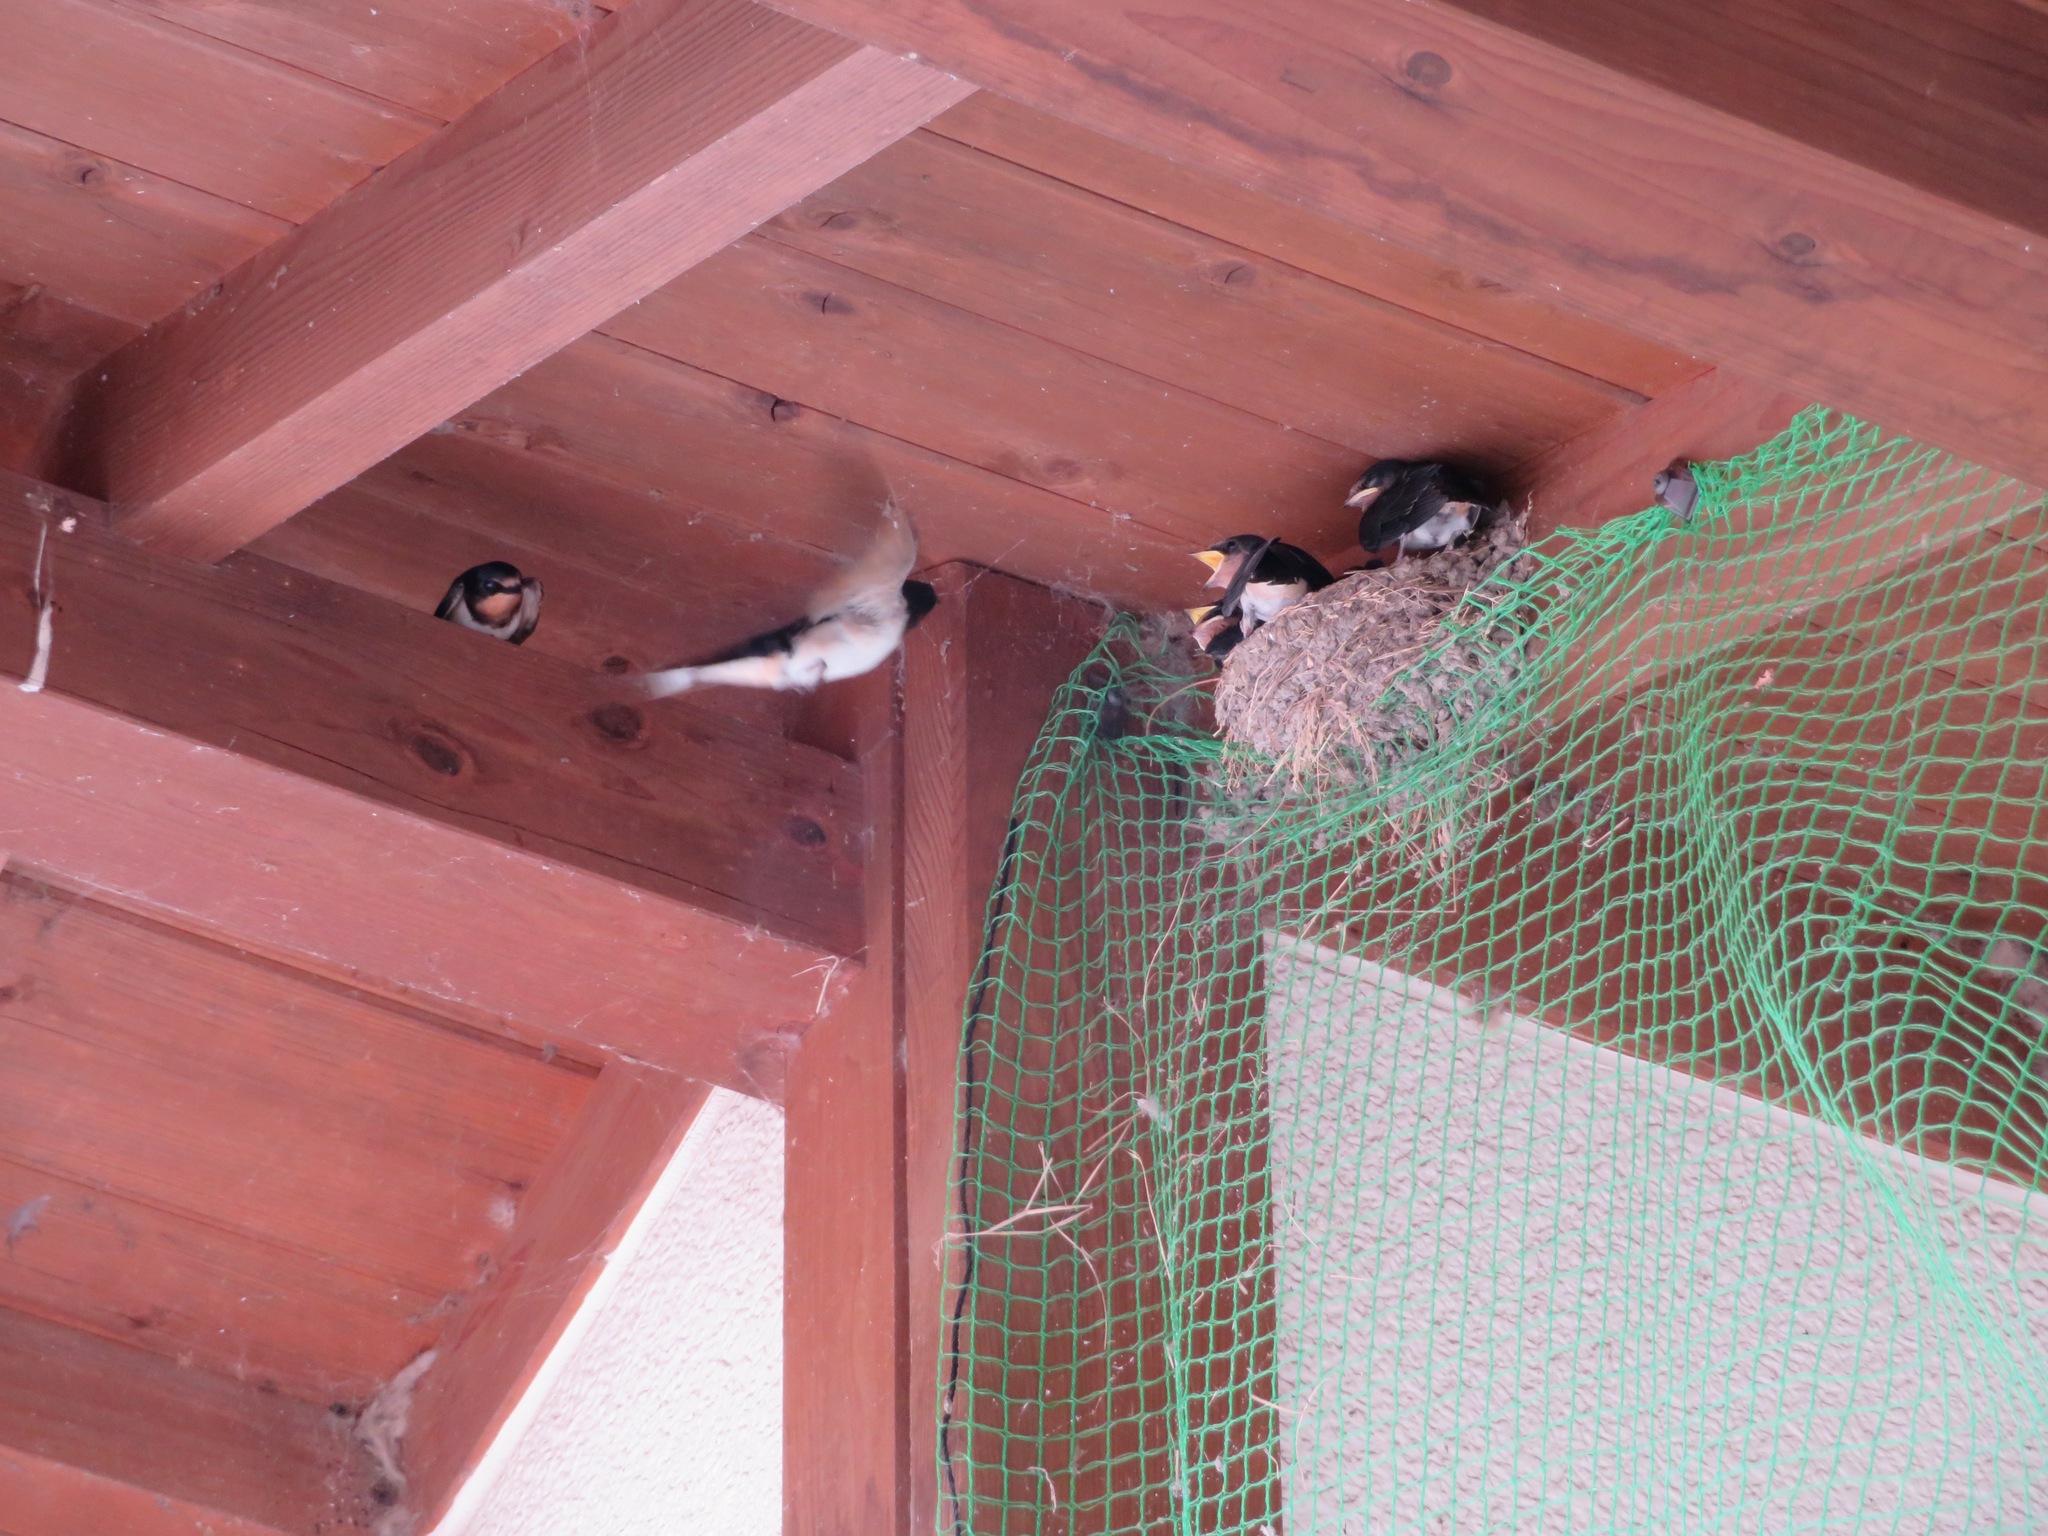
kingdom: Animalia
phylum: Chordata
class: Aves
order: Passeriformes
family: Hirundinidae
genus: Hirundo
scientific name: Hirundo rustica
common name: Barn swallow
